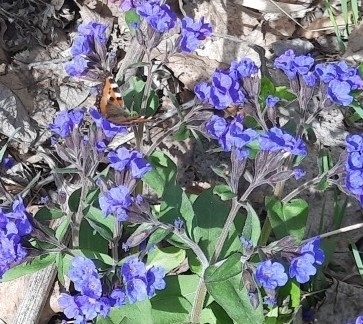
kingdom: Animalia
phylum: Arthropoda
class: Insecta
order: Lepidoptera
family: Nymphalidae
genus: Aglais
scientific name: Aglais urticae
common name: Small tortoiseshell
